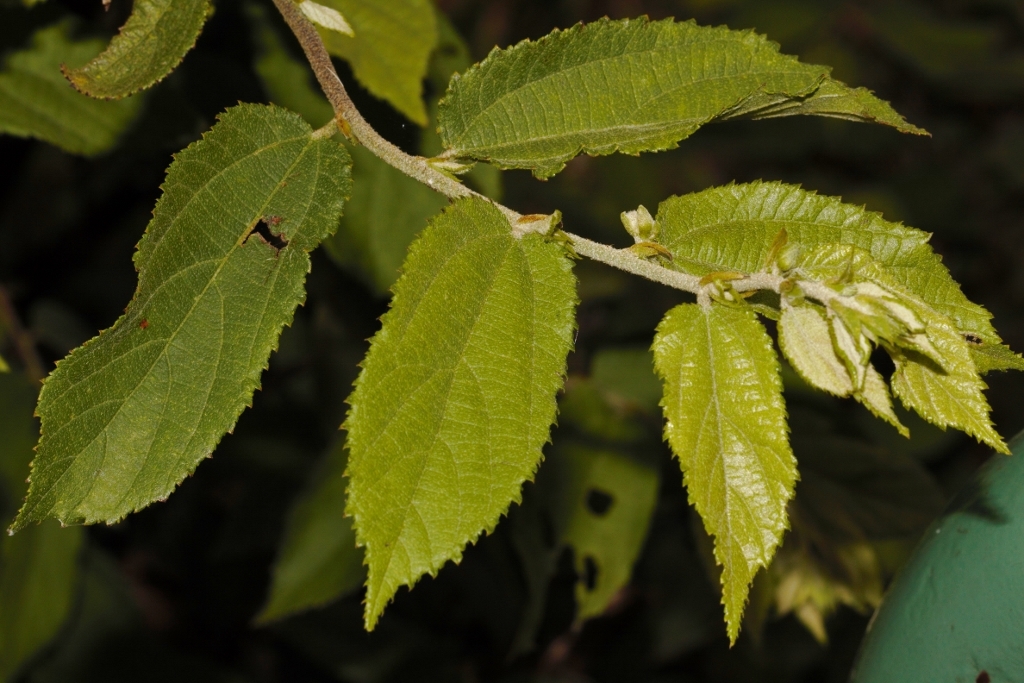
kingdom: Plantae
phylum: Tracheophyta
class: Magnoliopsida
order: Malvales
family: Malvaceae
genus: Grewia
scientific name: Grewia flavescens
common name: Sandpaper raisin
